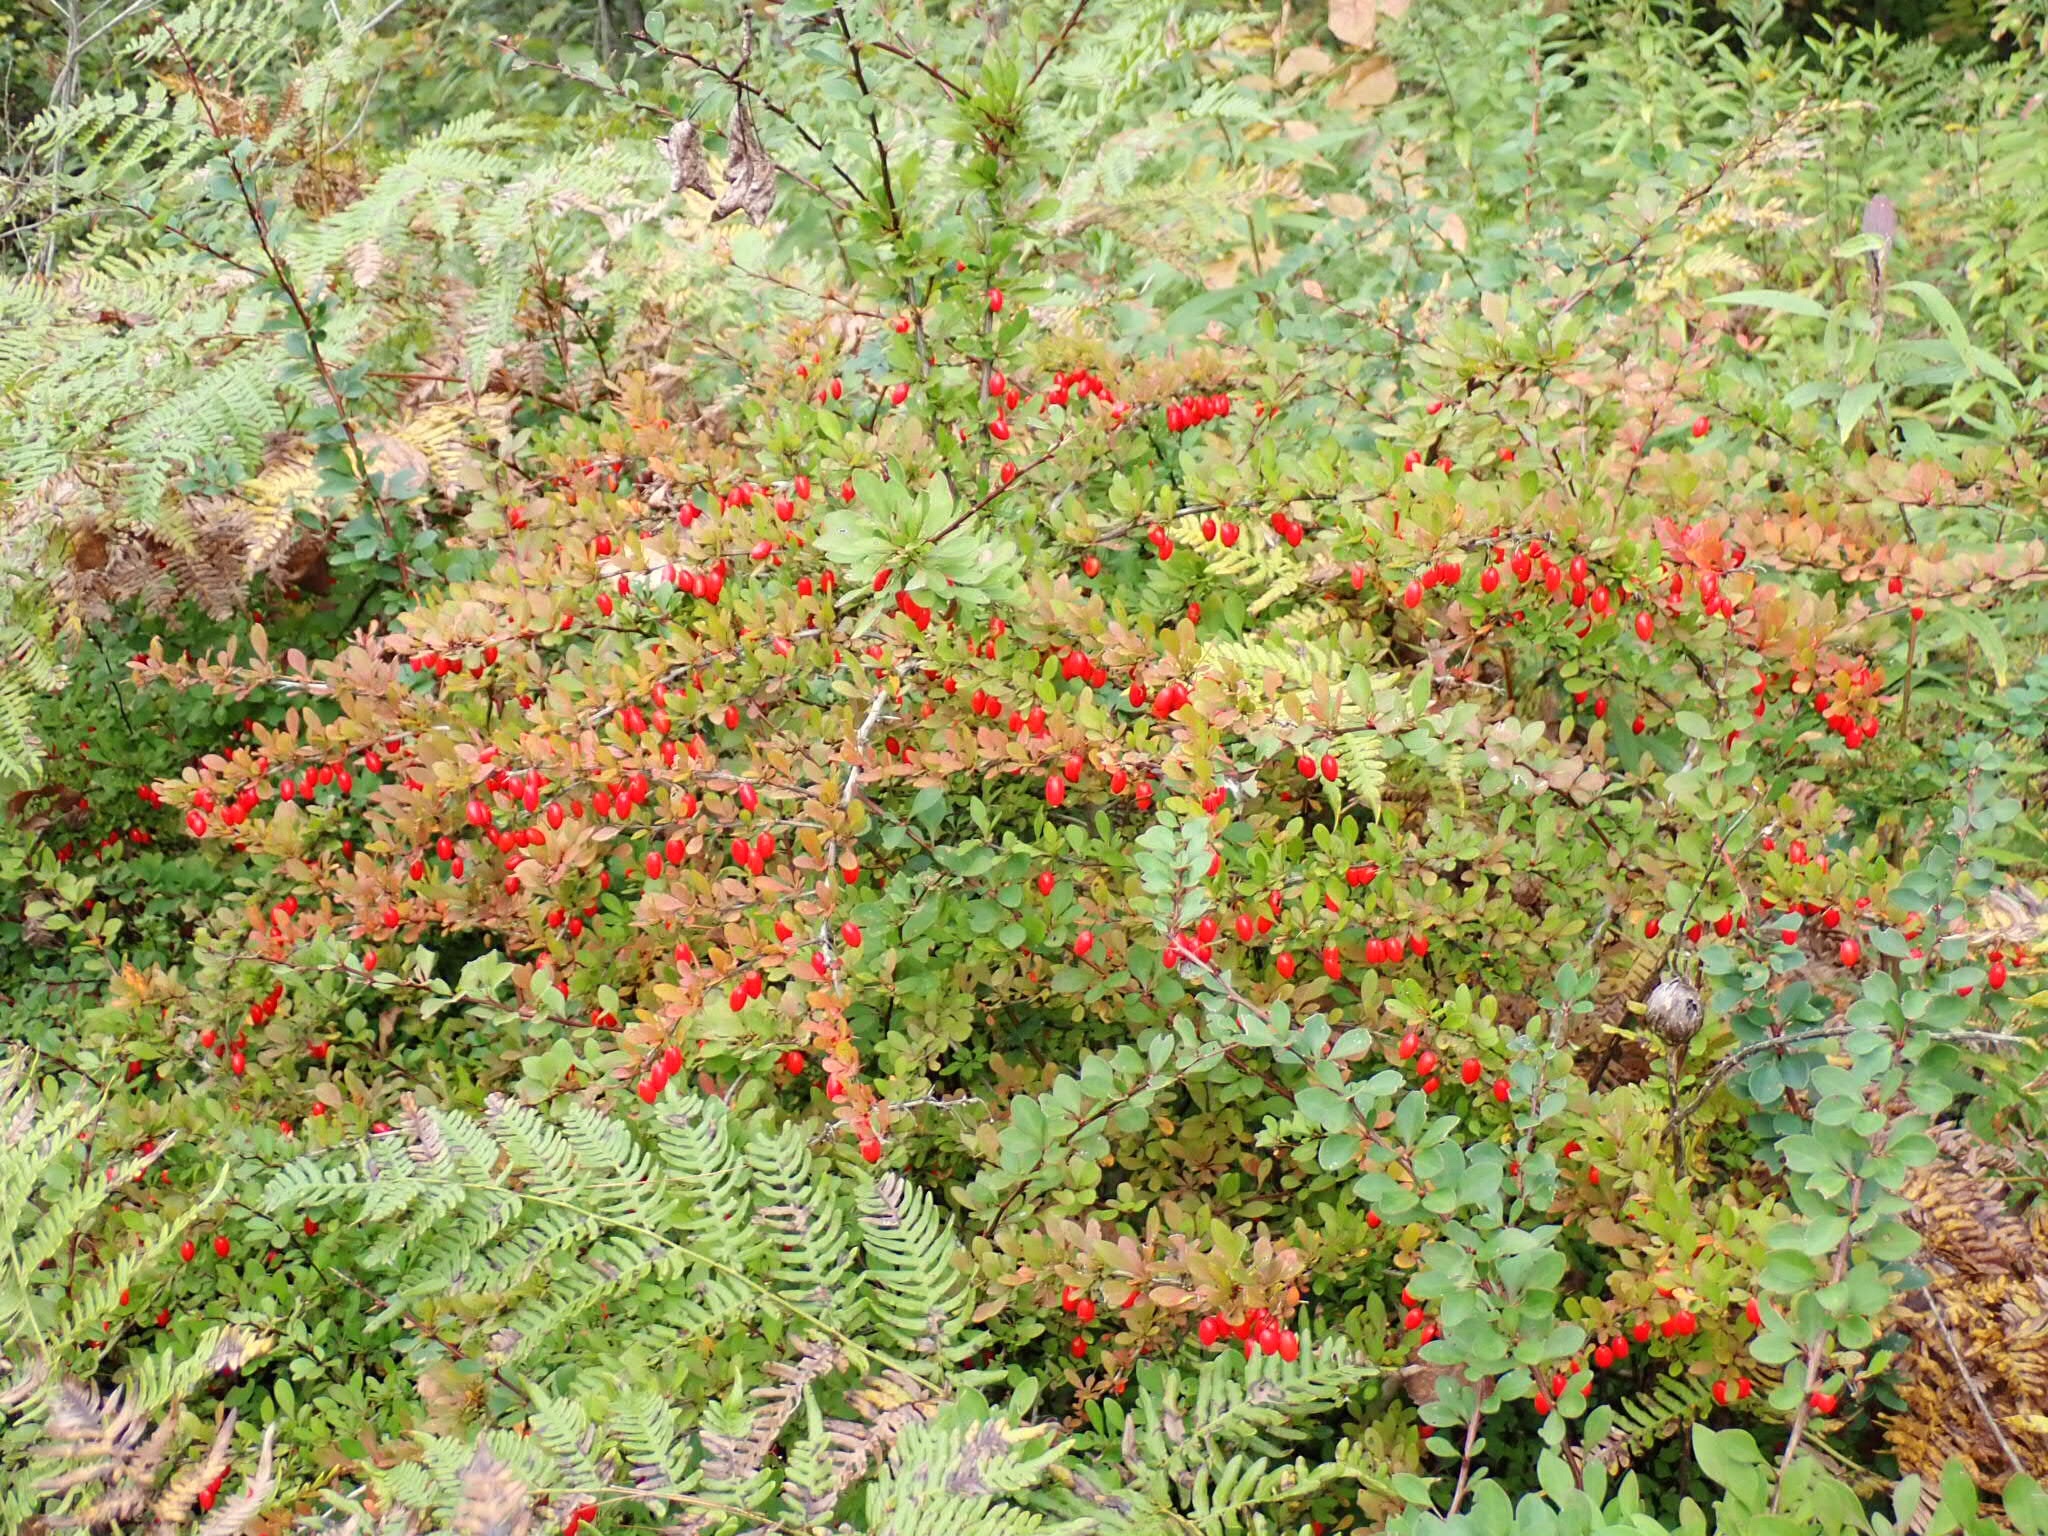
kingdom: Plantae
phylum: Tracheophyta
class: Magnoliopsida
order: Ranunculales
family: Berberidaceae
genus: Berberis
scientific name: Berberis thunbergii
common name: Japanese barberry
